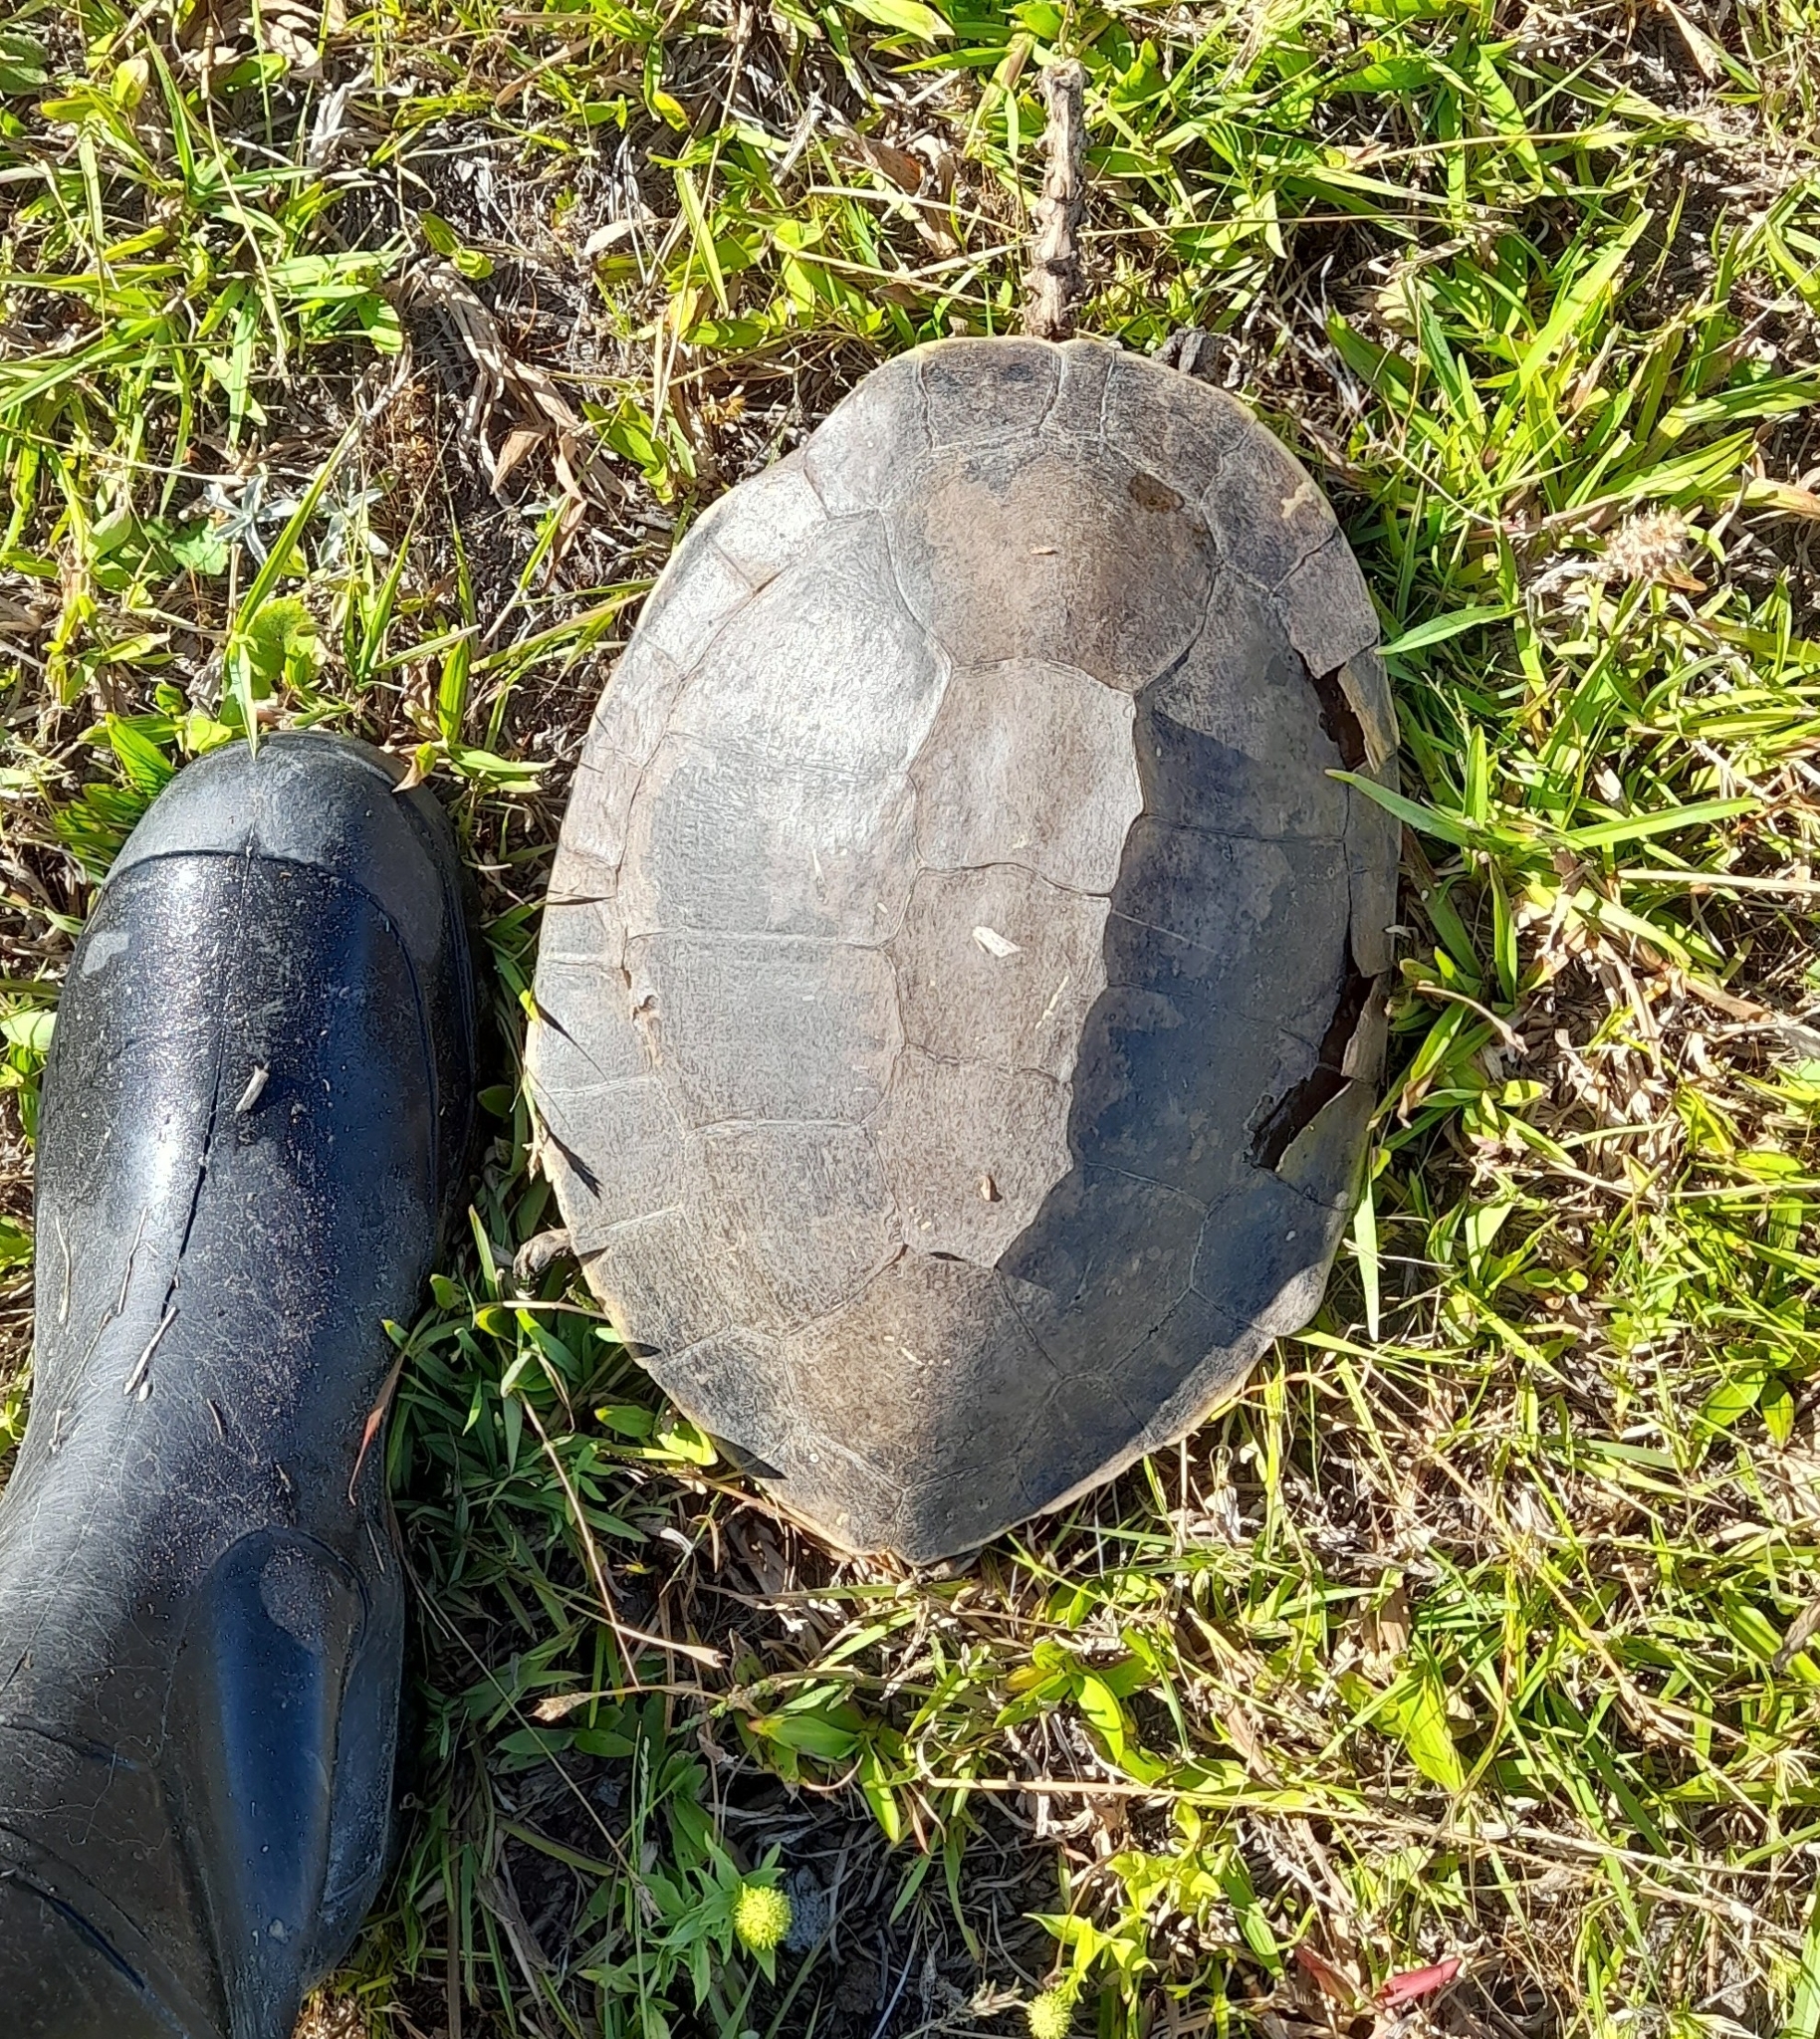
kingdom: Animalia
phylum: Chordata
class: Testudines
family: Chelidae
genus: Phrynops
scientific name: Phrynops hilarii
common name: Side-necked turtle of saint hillaire
